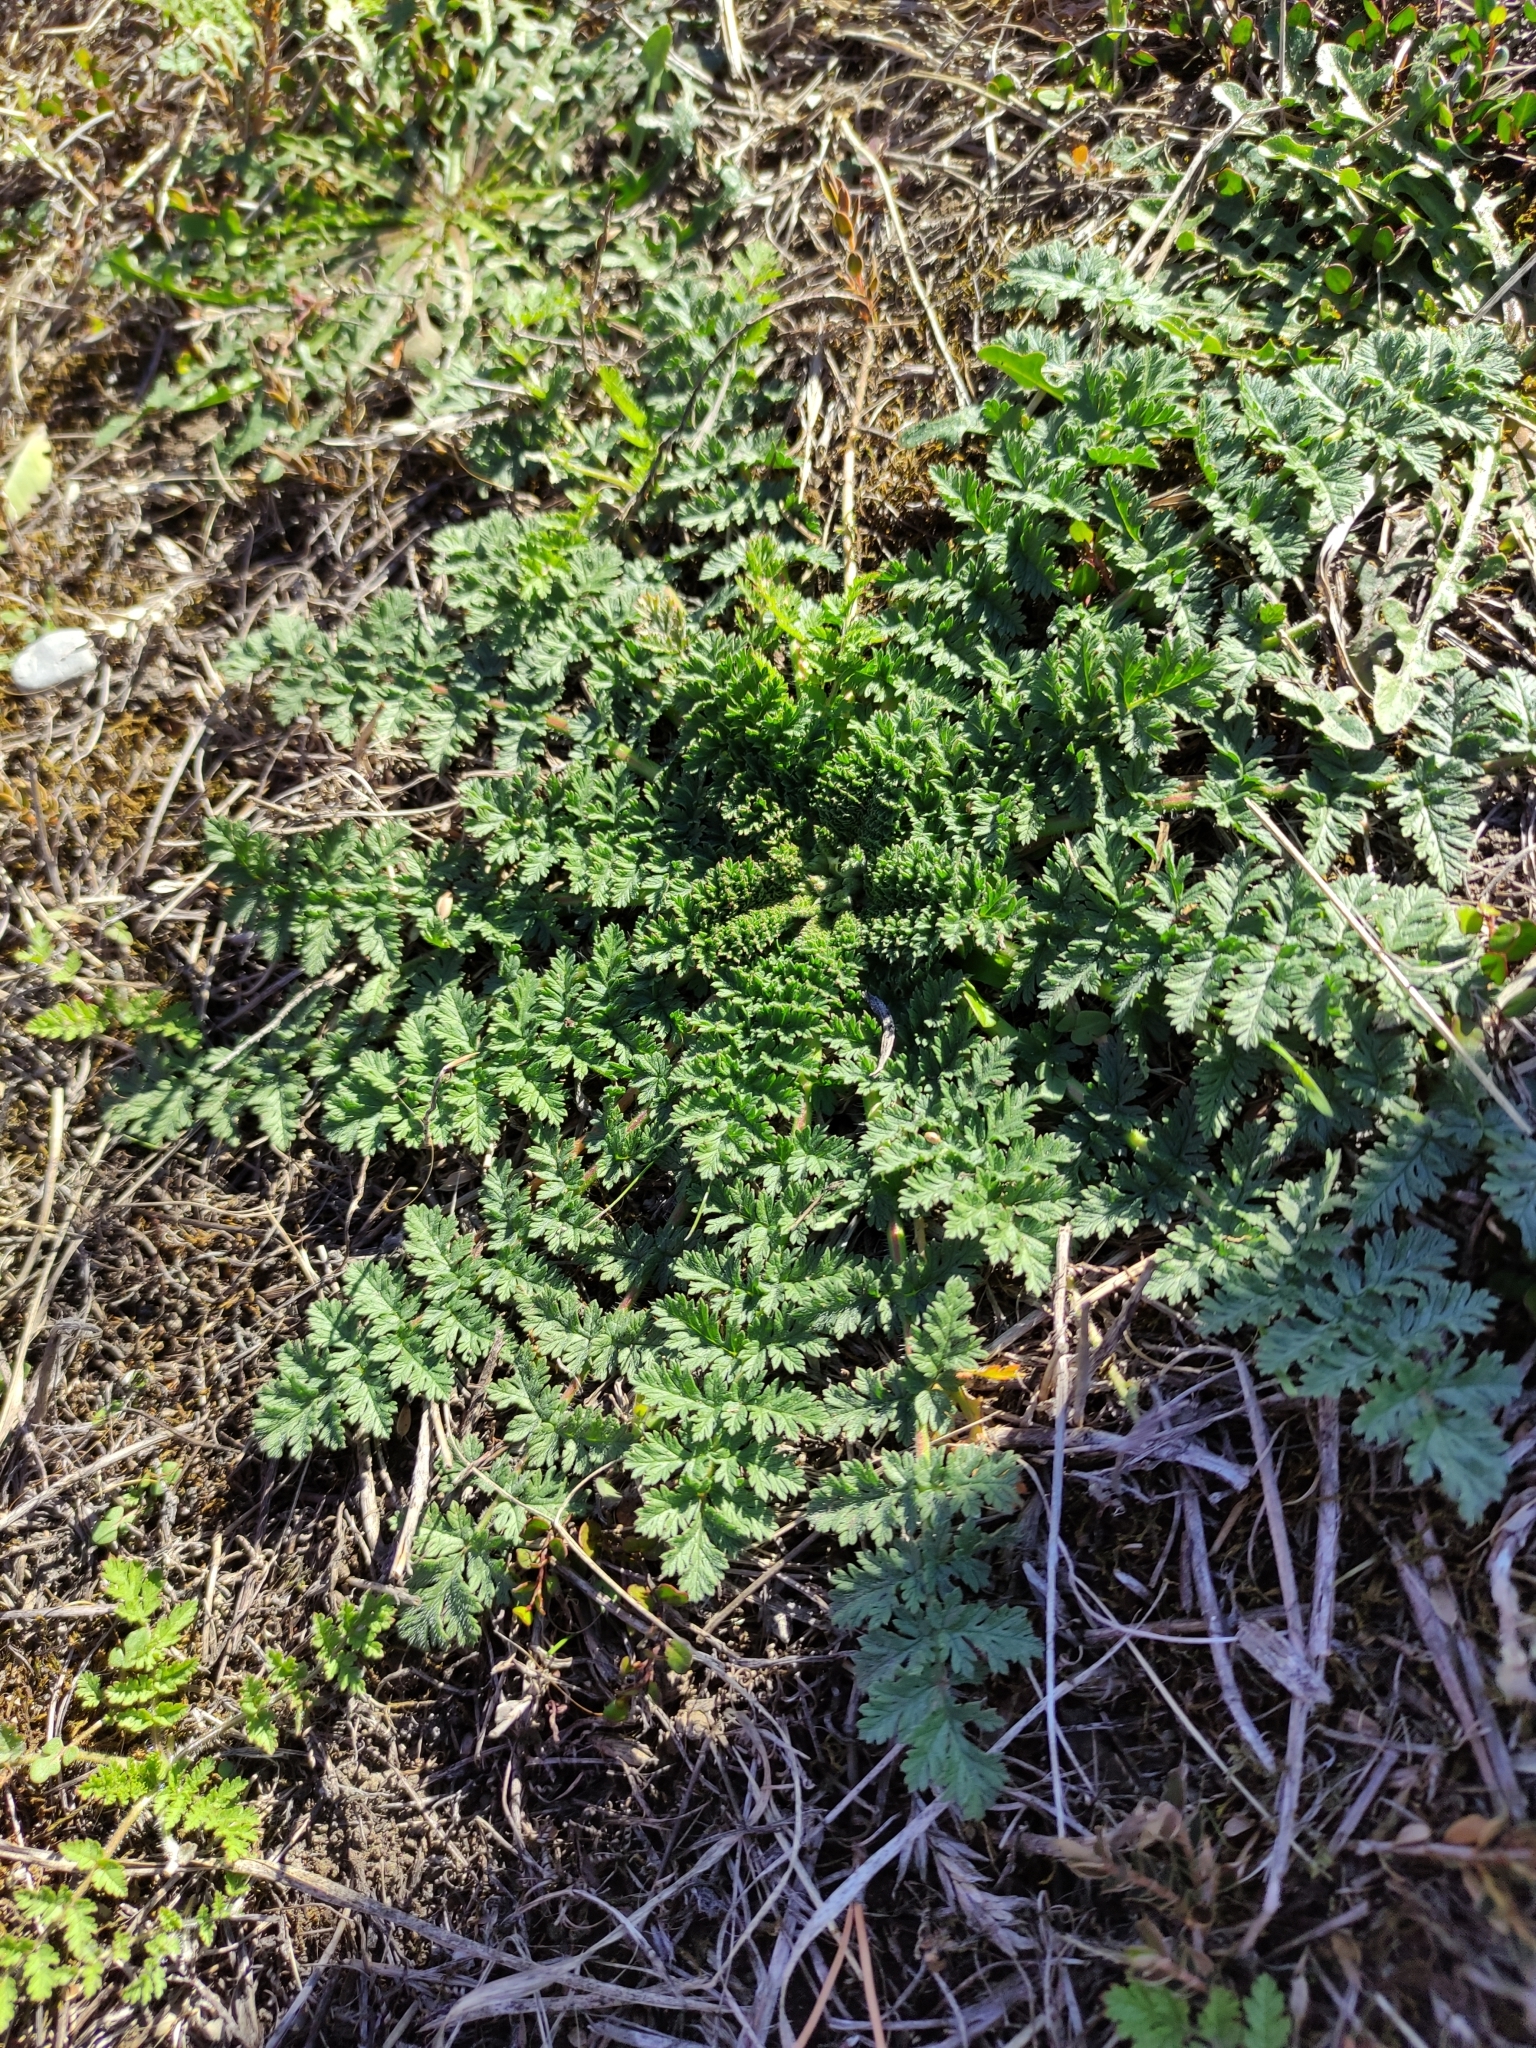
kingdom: Plantae
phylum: Tracheophyta
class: Magnoliopsida
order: Geraniales
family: Geraniaceae
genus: Erodium
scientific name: Erodium moschatum
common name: Musk stork's-bill
